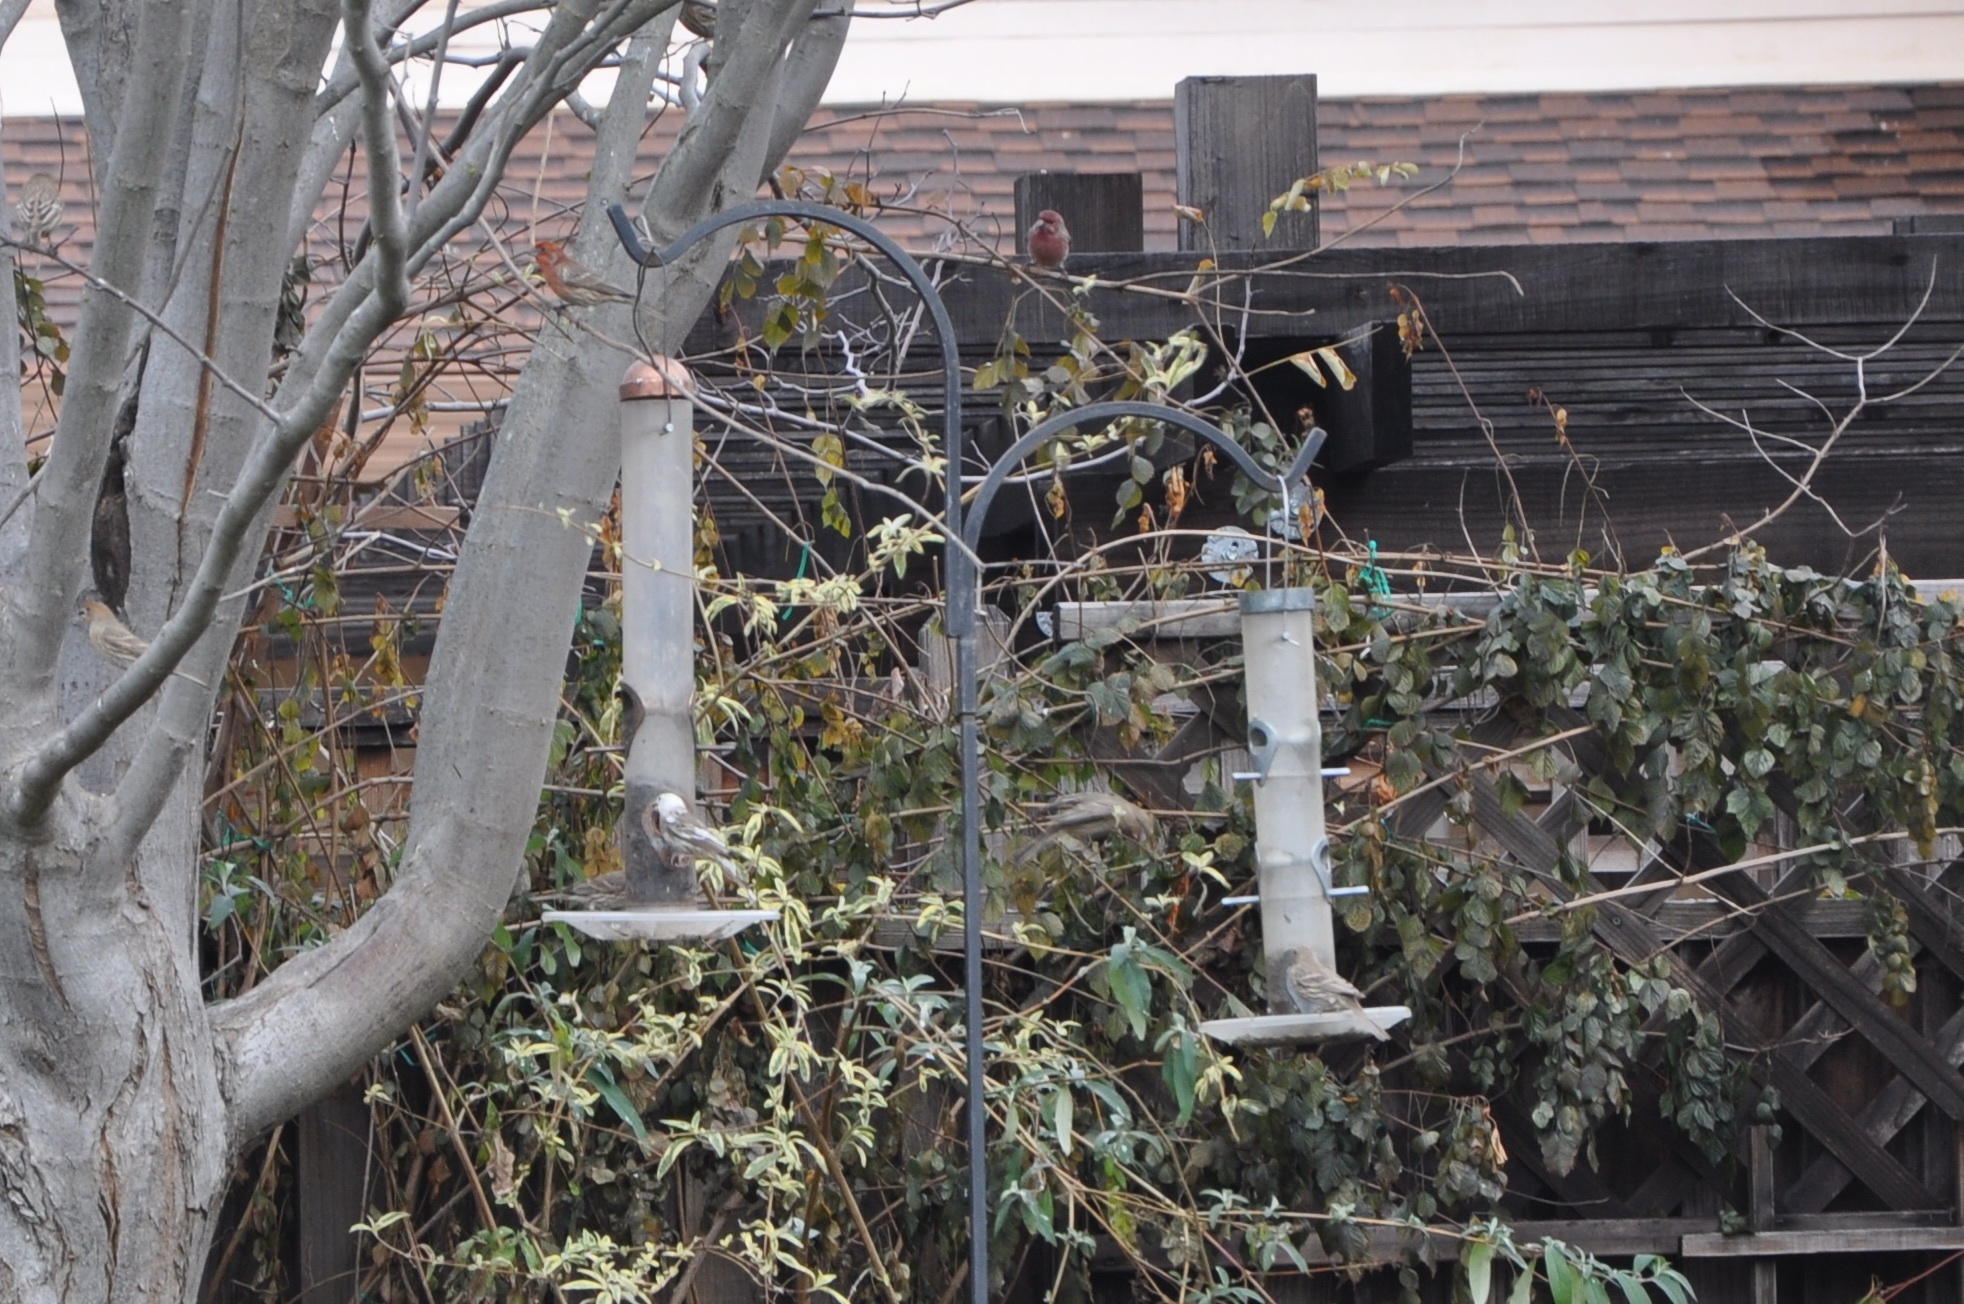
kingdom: Animalia
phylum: Chordata
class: Aves
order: Passeriformes
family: Fringillidae
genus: Haemorhous
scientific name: Haemorhous mexicanus
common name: House finch
